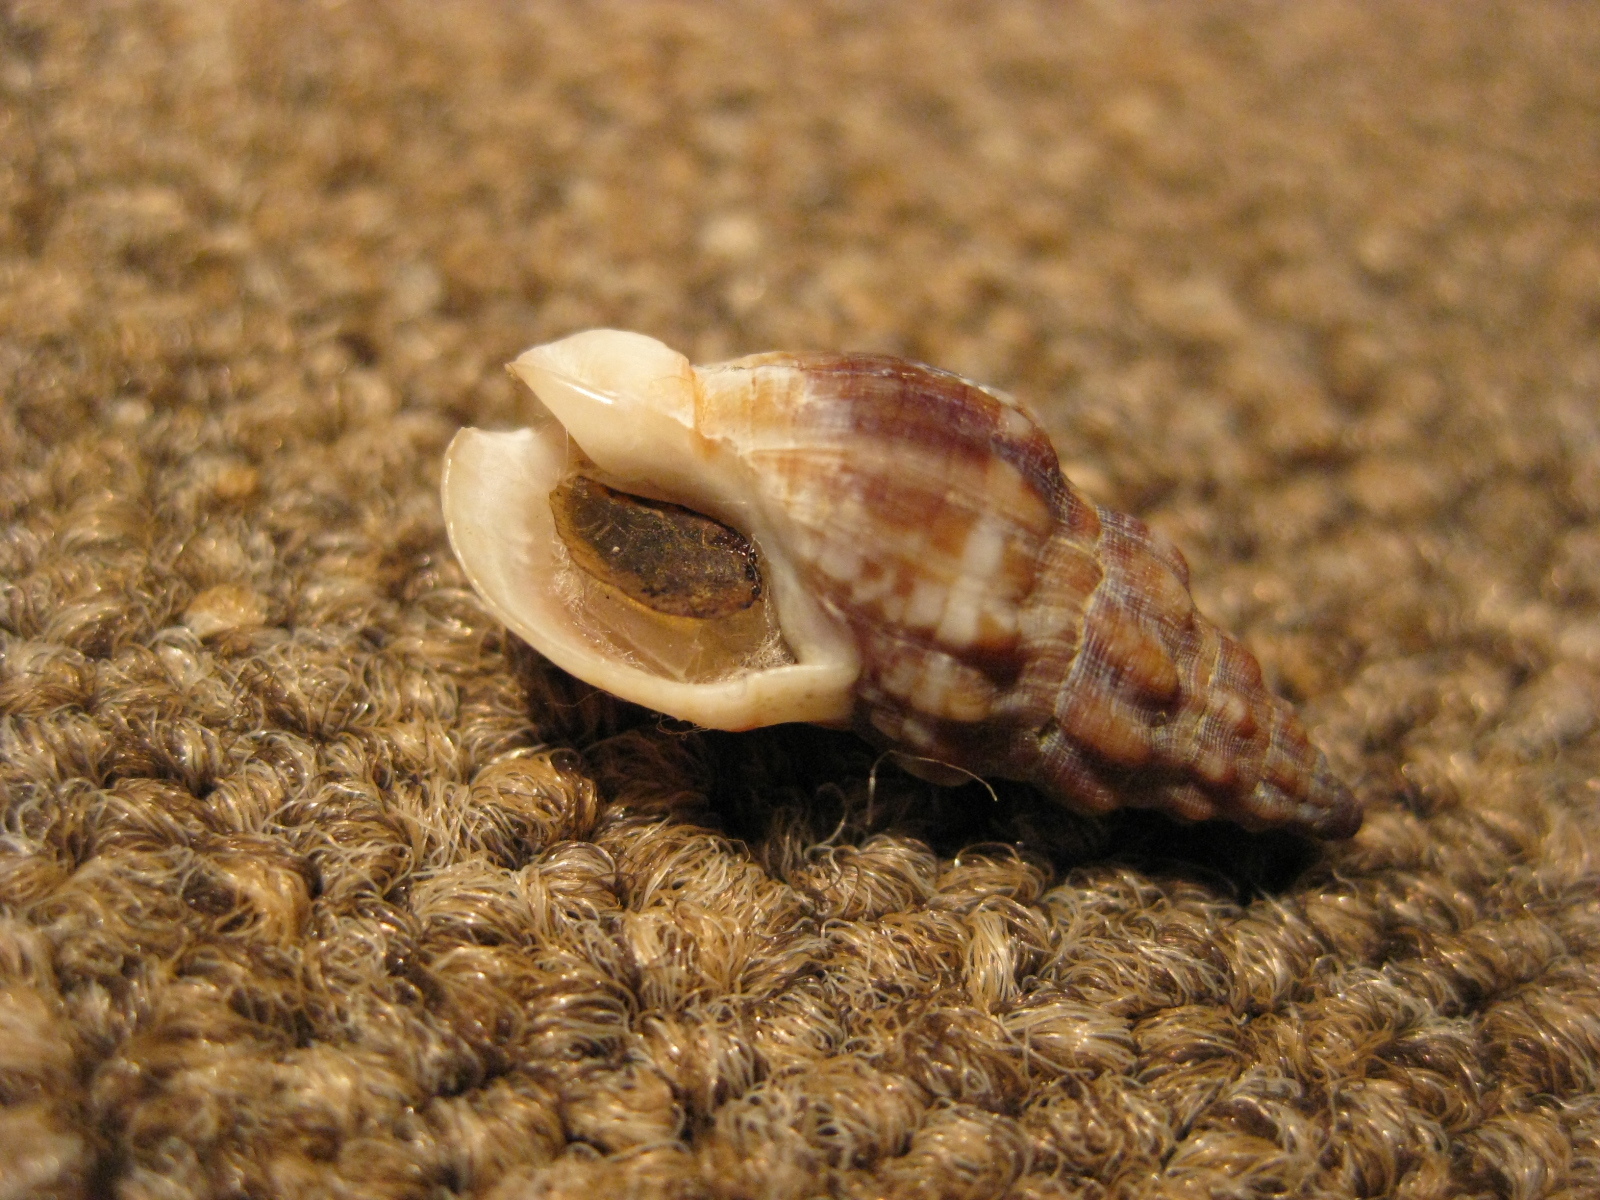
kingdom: Animalia
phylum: Mollusca
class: Gastropoda
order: Neogastropoda
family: Cominellidae
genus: Cominella
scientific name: Cominella quoyana
